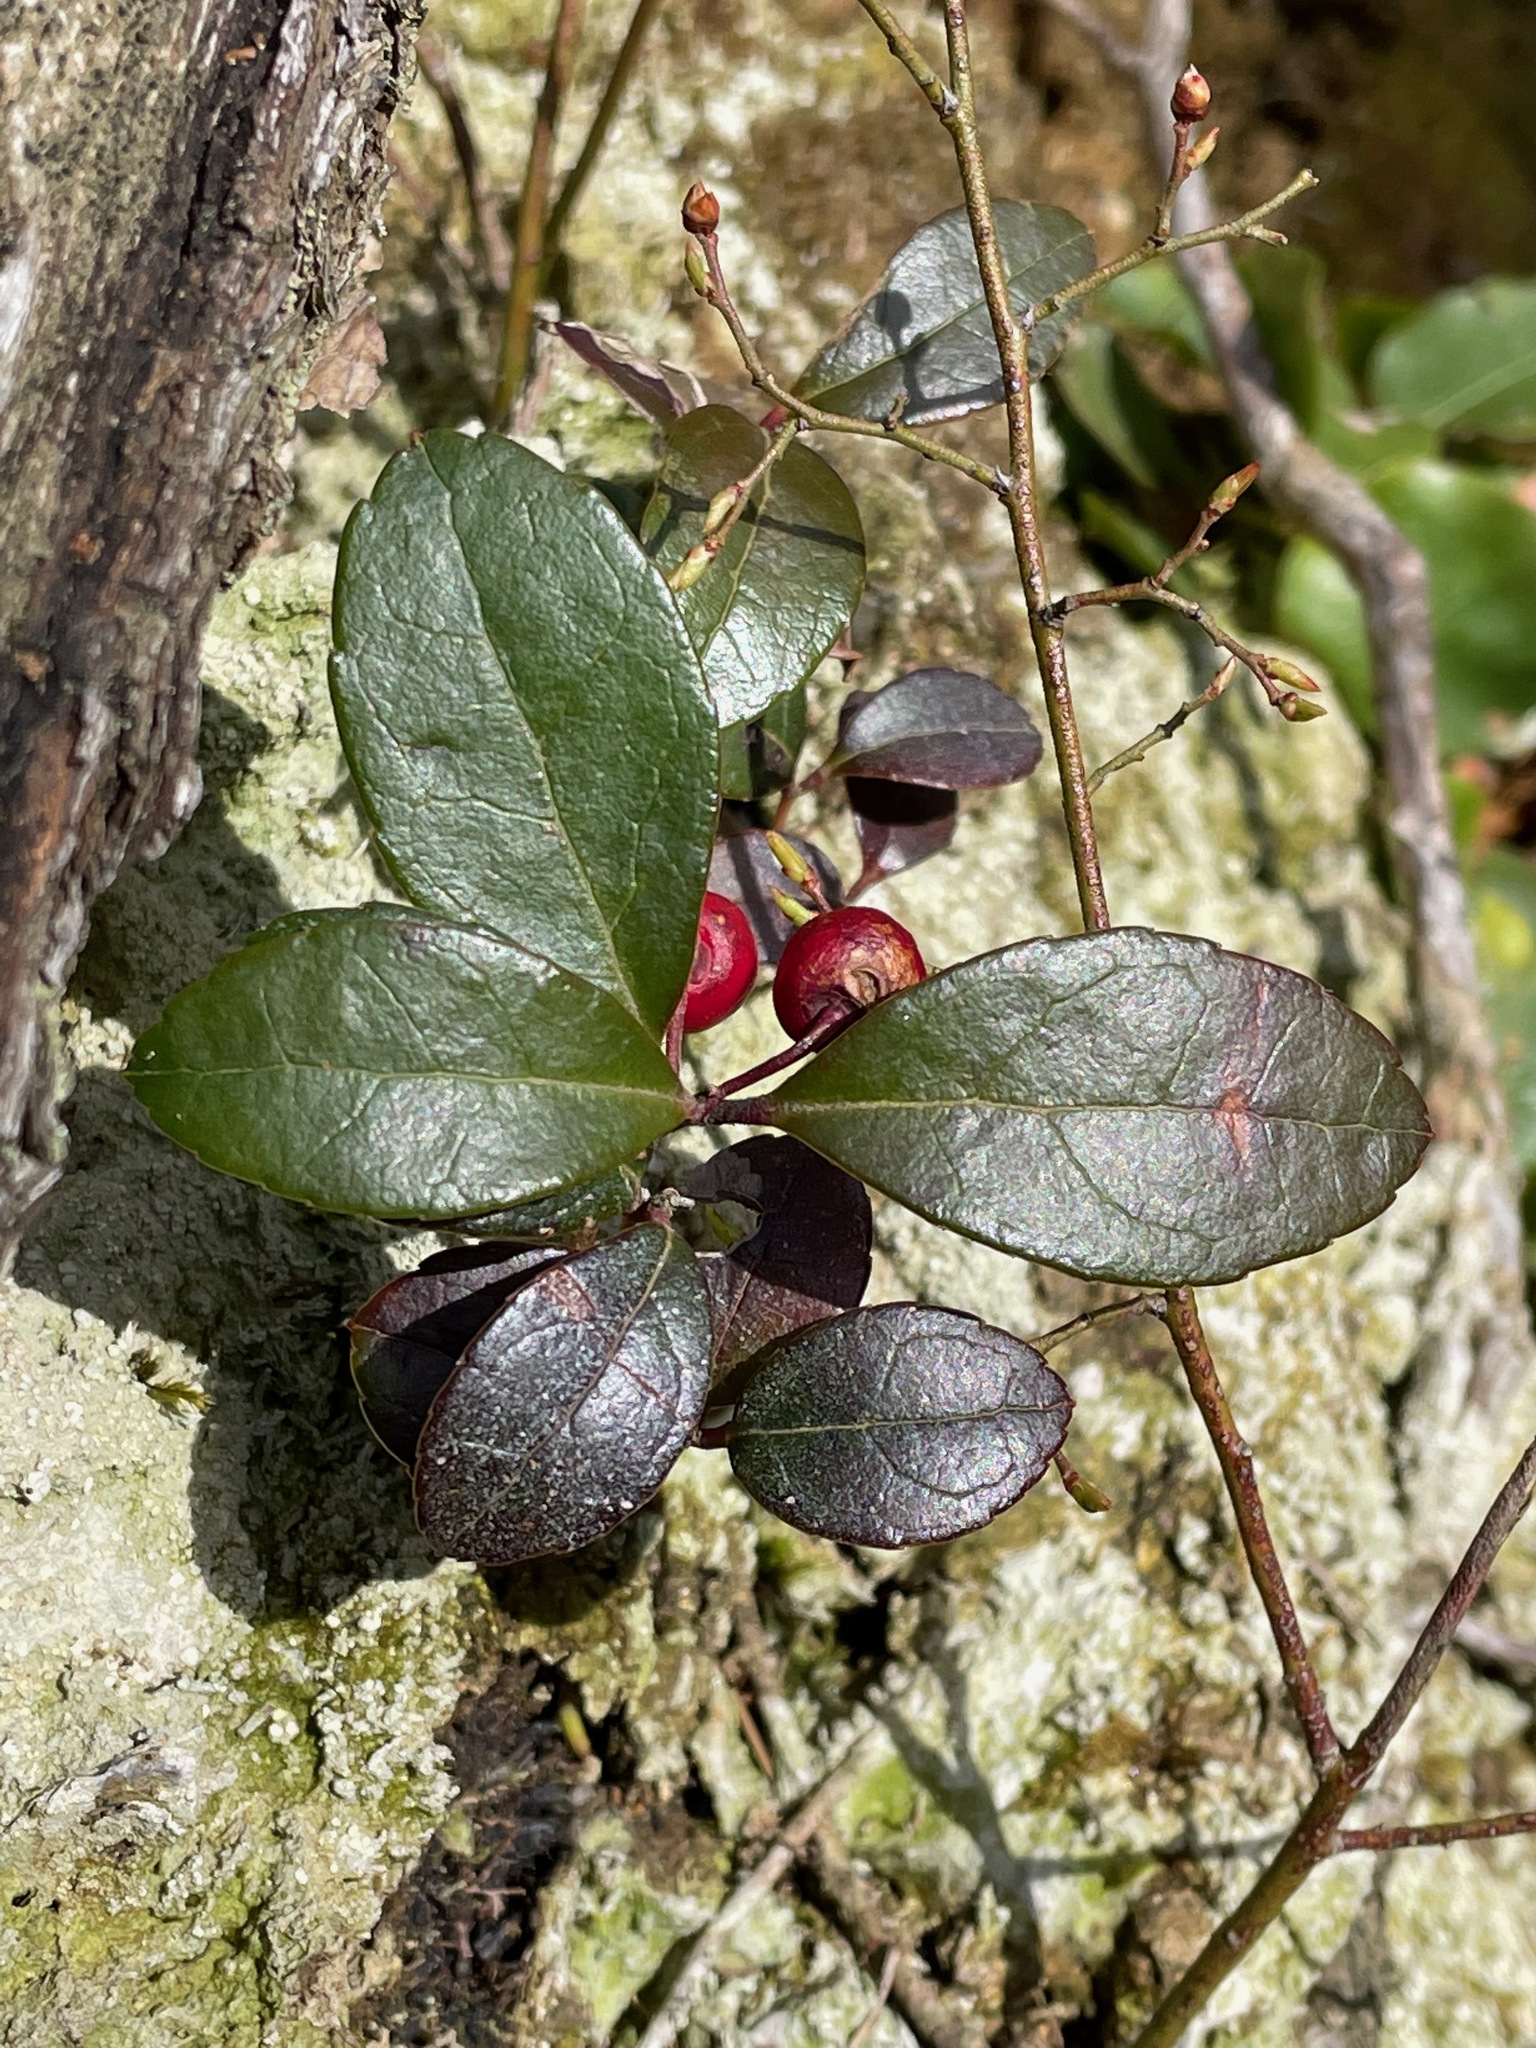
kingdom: Plantae
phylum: Tracheophyta
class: Magnoliopsida
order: Ericales
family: Ericaceae
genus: Gaultheria
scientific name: Gaultheria procumbens
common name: Checkerberry
